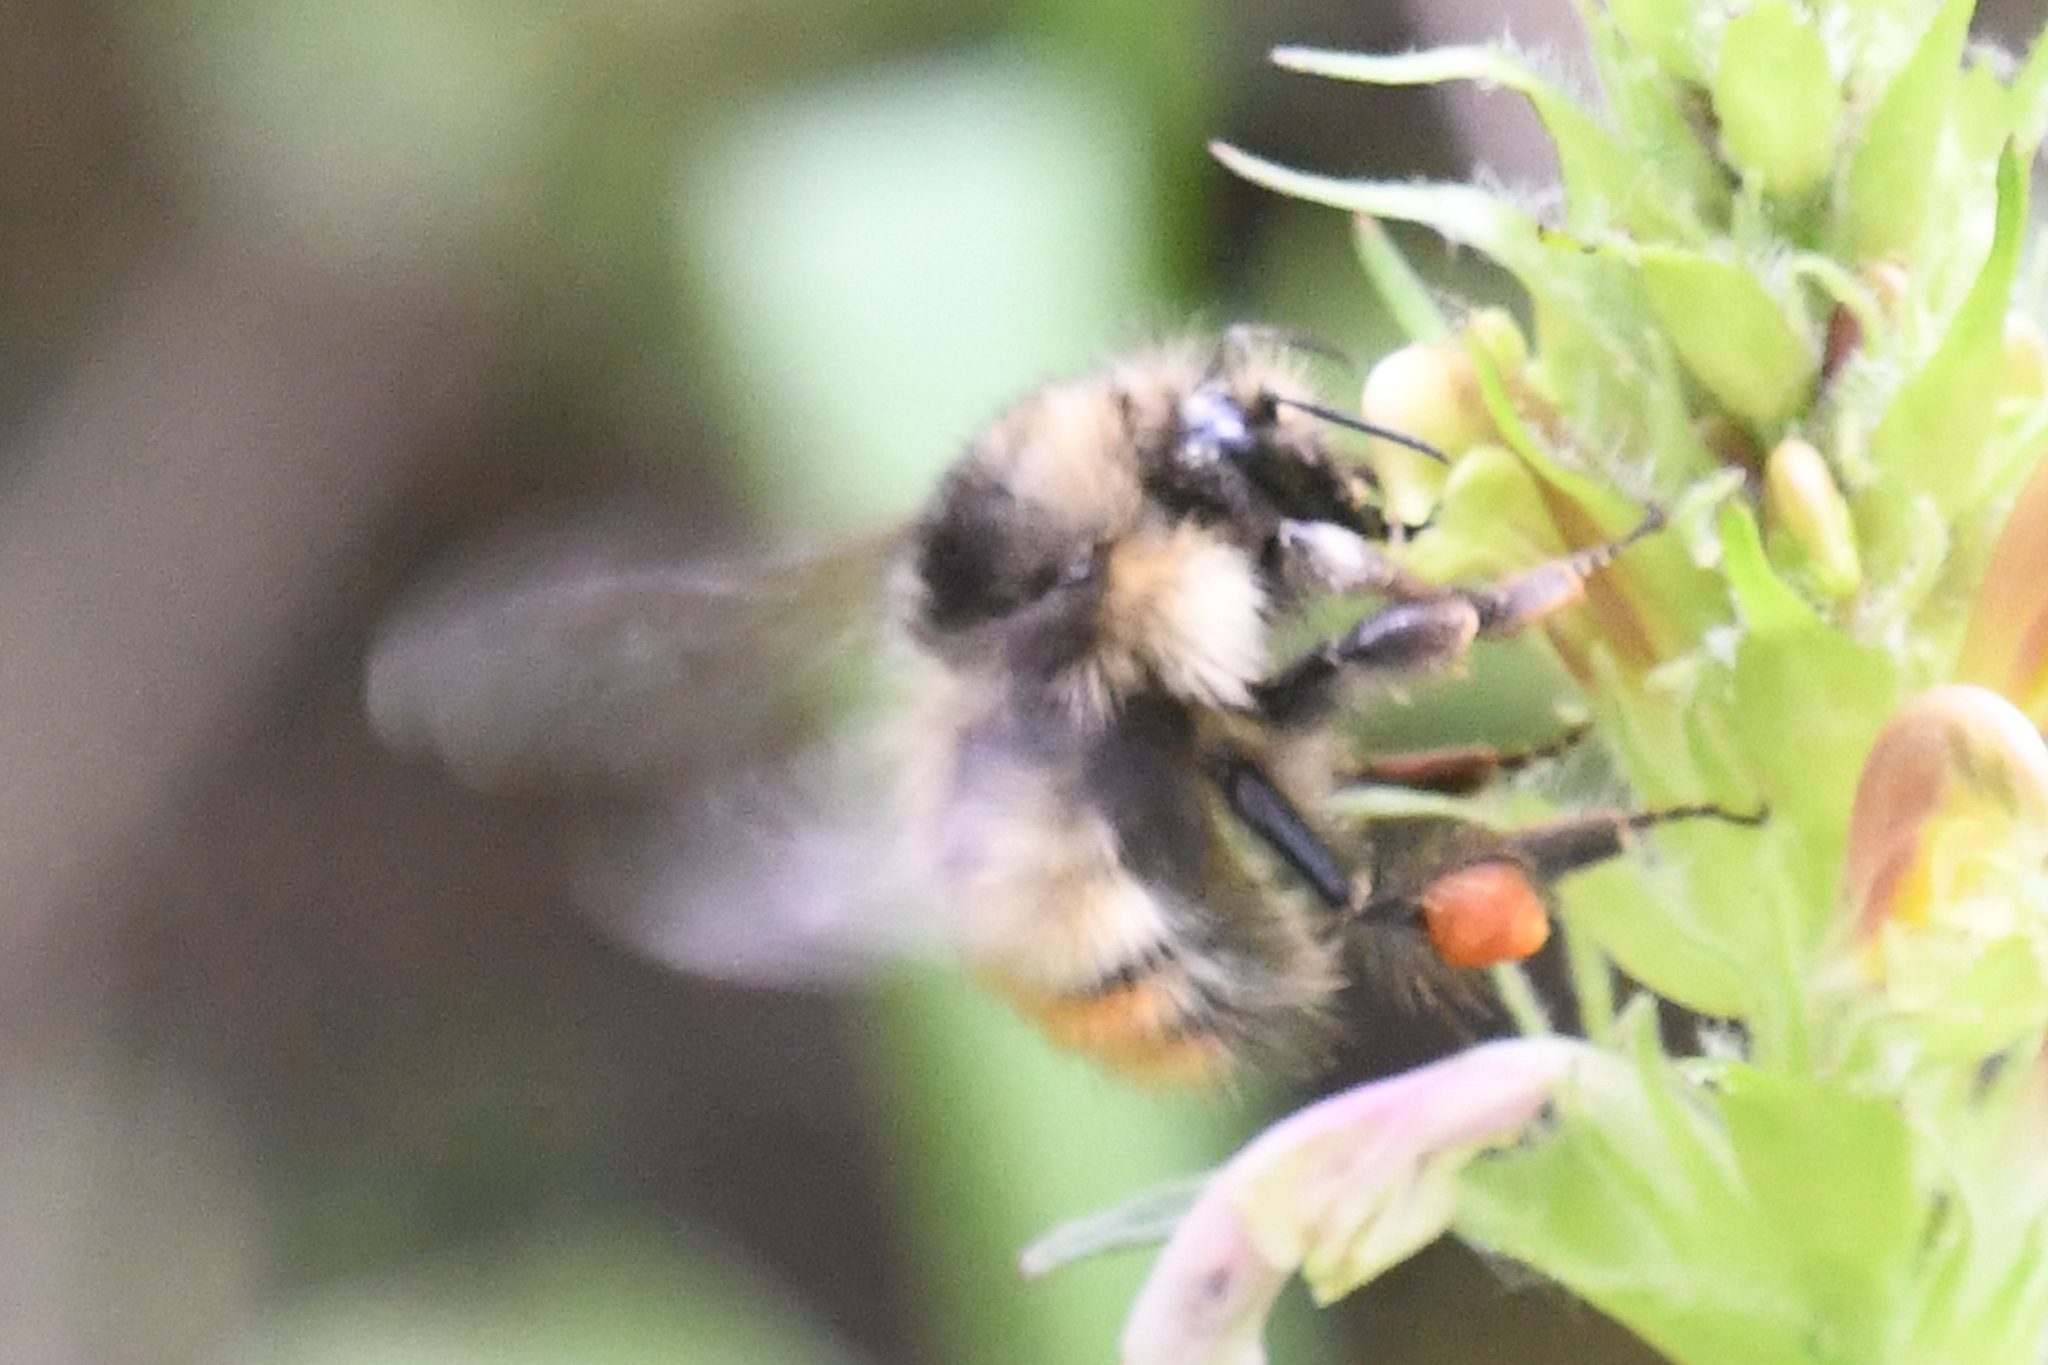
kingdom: Animalia
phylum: Arthropoda
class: Insecta
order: Hymenoptera
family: Apidae
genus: Bombus
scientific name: Bombus flavifrons
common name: Yellow head bumble bee
